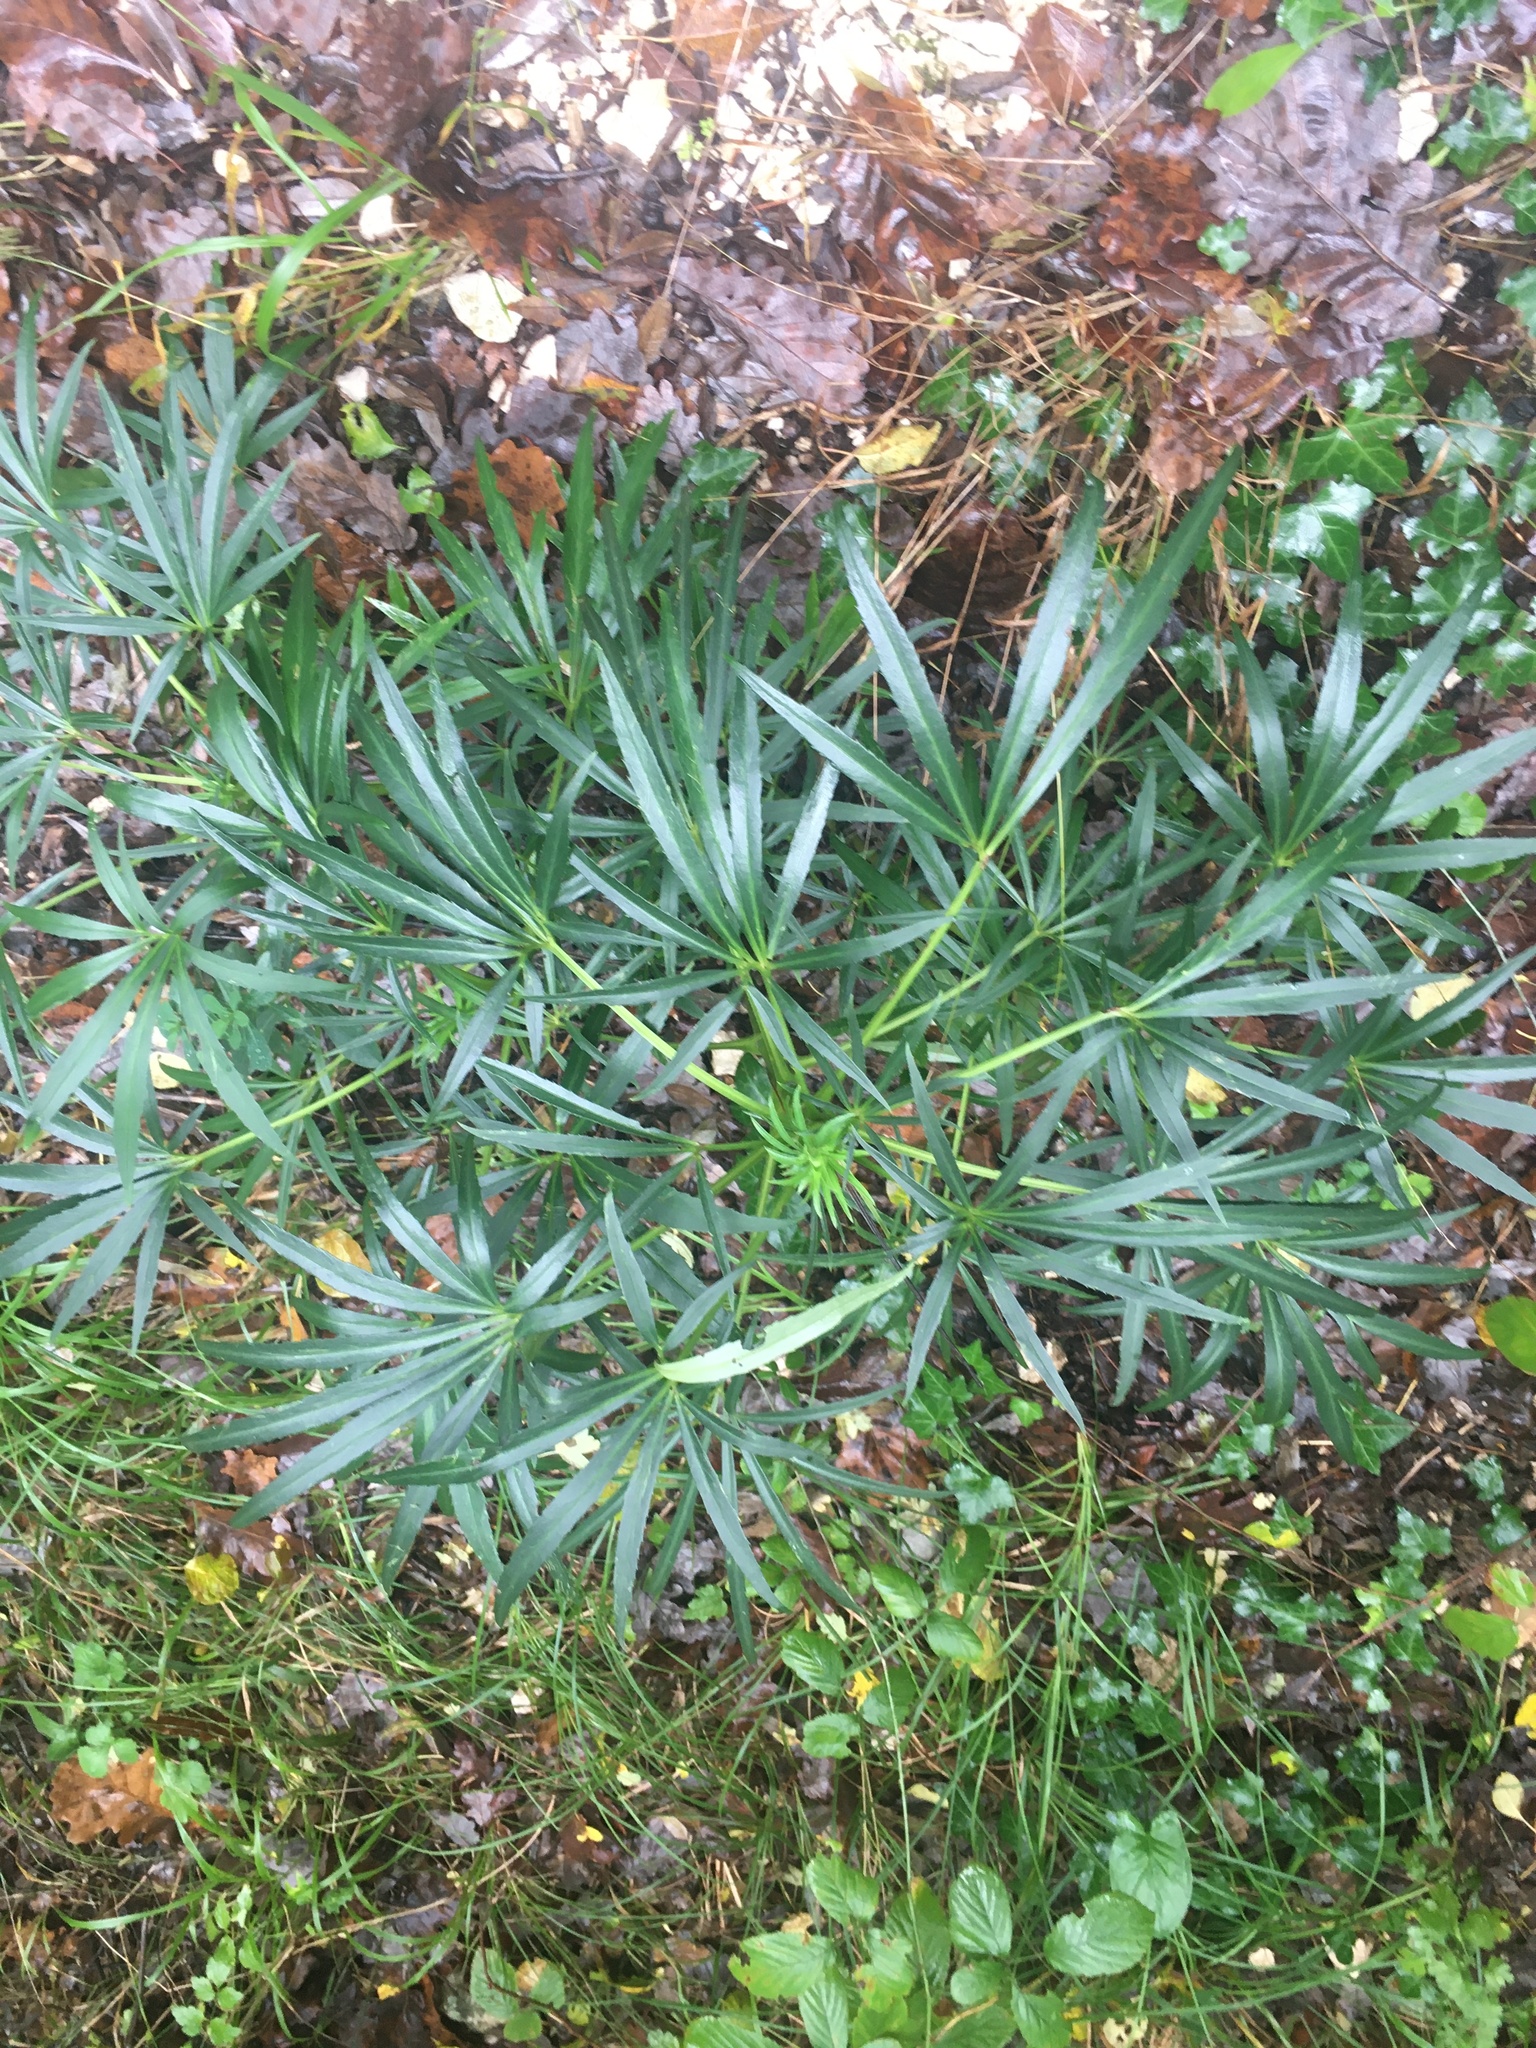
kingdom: Plantae
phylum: Tracheophyta
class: Magnoliopsida
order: Ranunculales
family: Ranunculaceae
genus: Helleborus
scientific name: Helleborus foetidus
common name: Stinking hellebore
